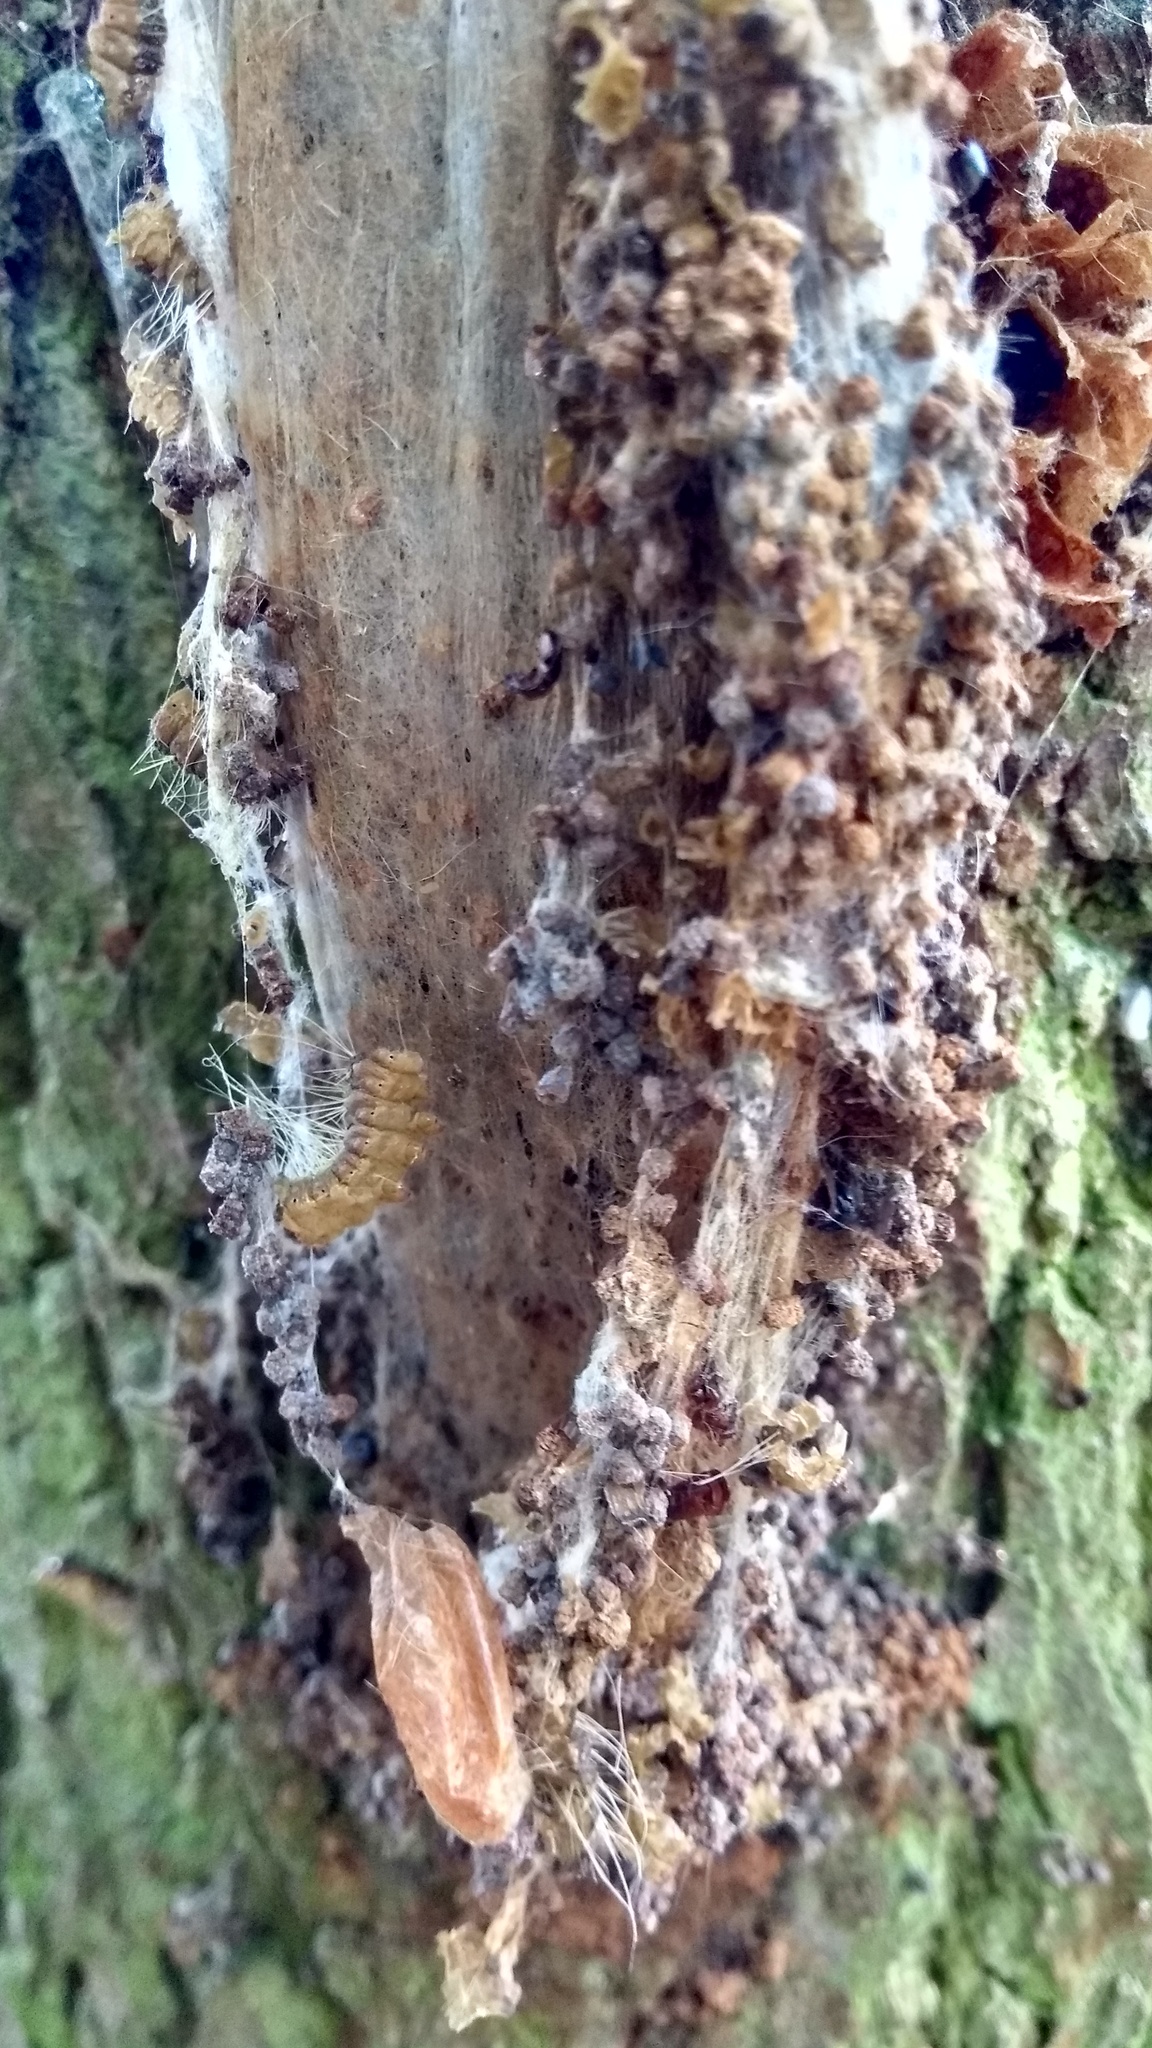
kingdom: Animalia
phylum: Arthropoda
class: Insecta
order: Lepidoptera
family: Notodontidae
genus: Thaumetopoea
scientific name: Thaumetopoea processionea
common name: Oak processionea
